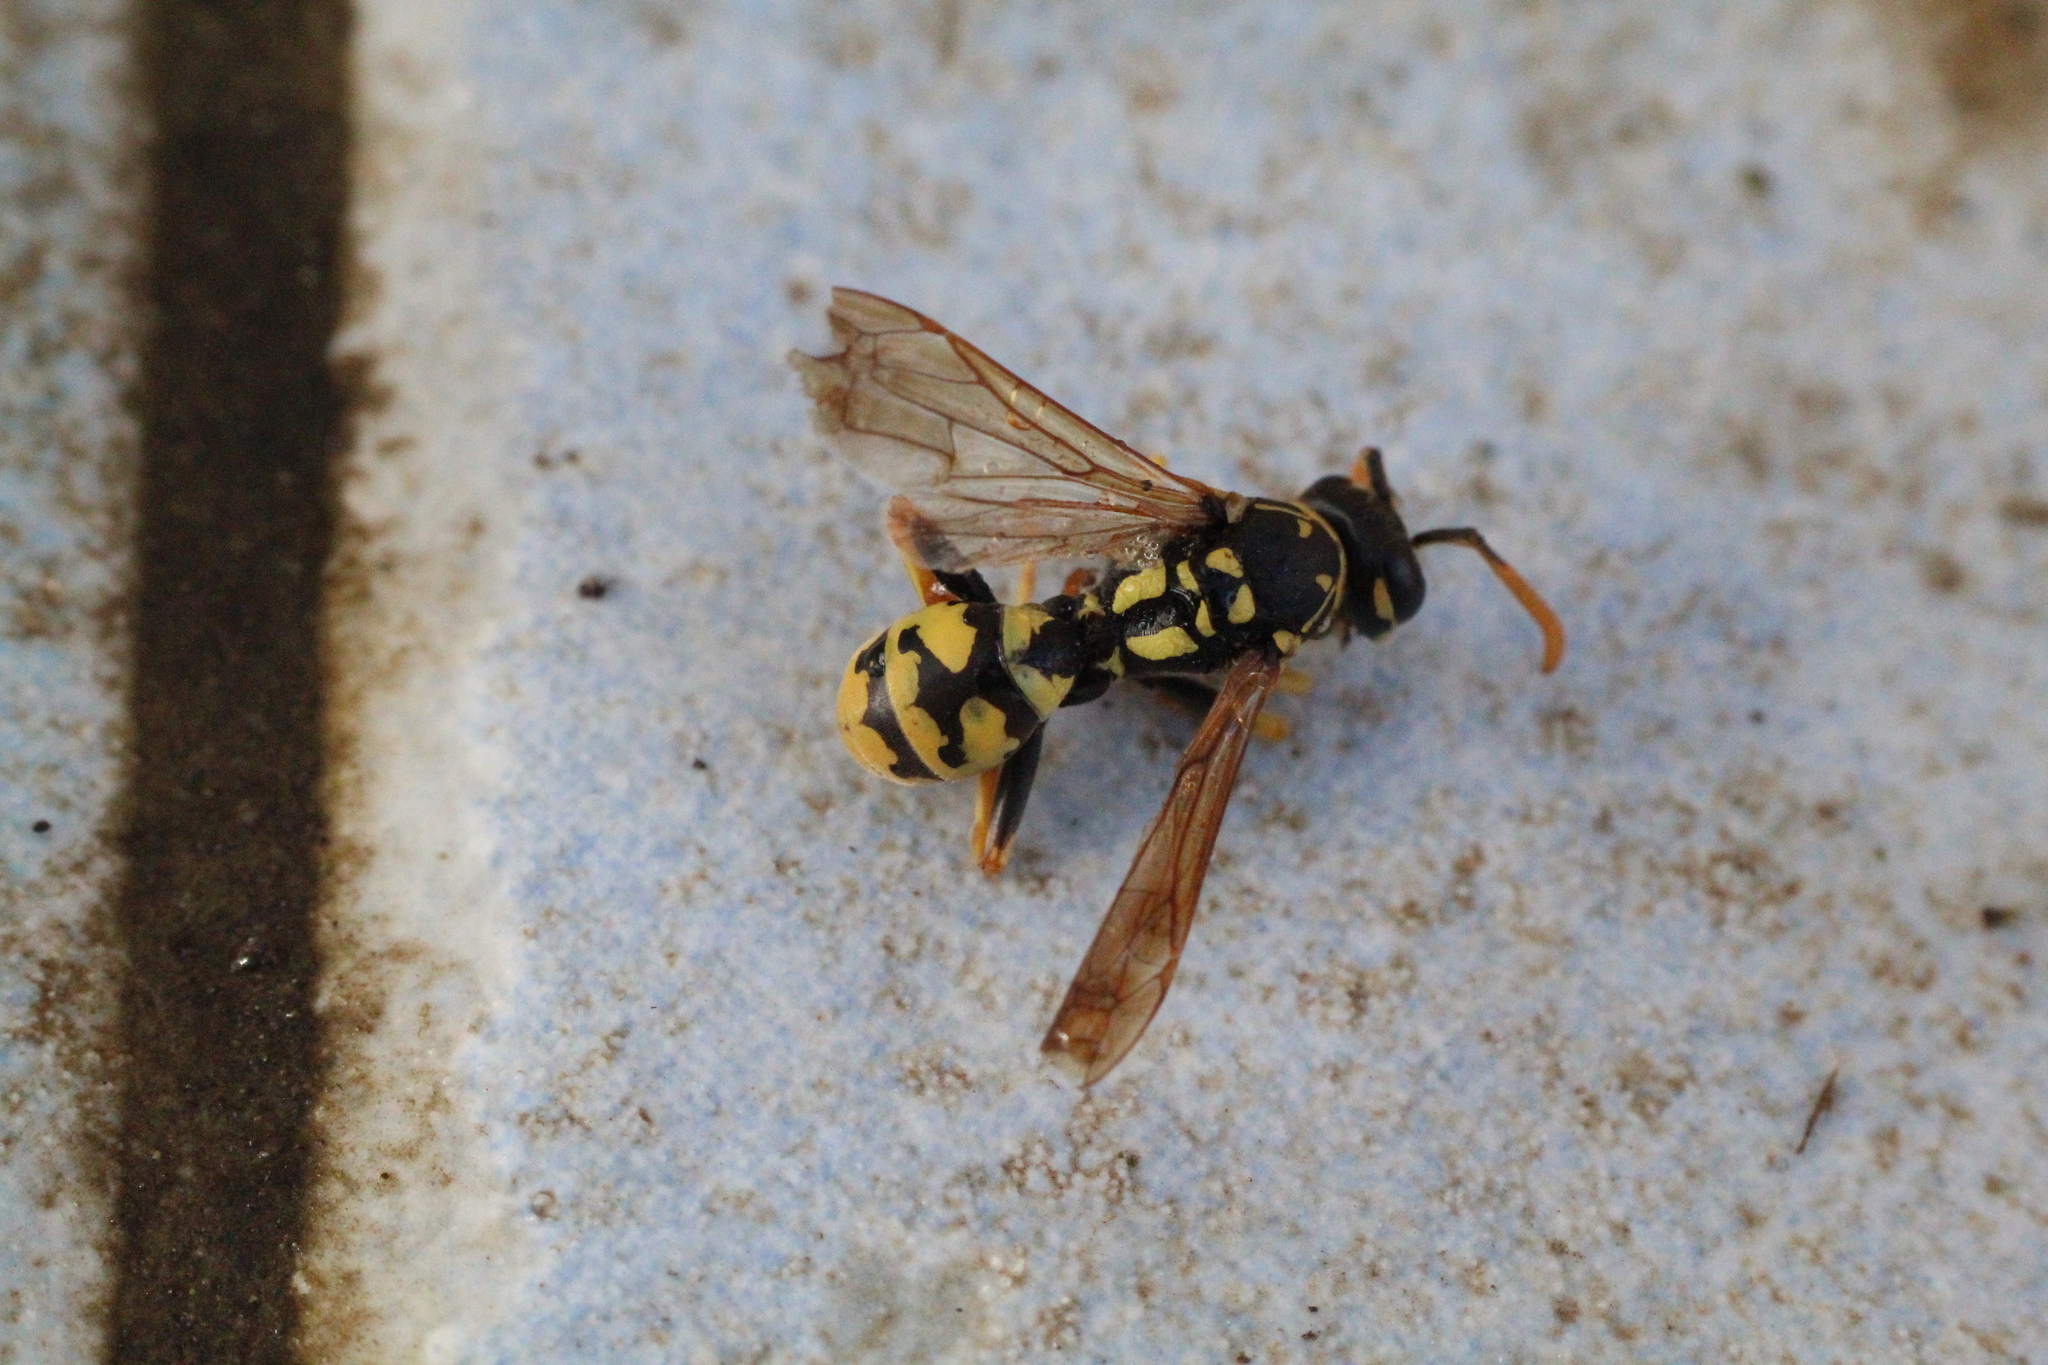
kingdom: Animalia
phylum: Arthropoda
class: Insecta
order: Hymenoptera
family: Eumenidae
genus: Polistes
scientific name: Polistes dominula
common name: Paper wasp
